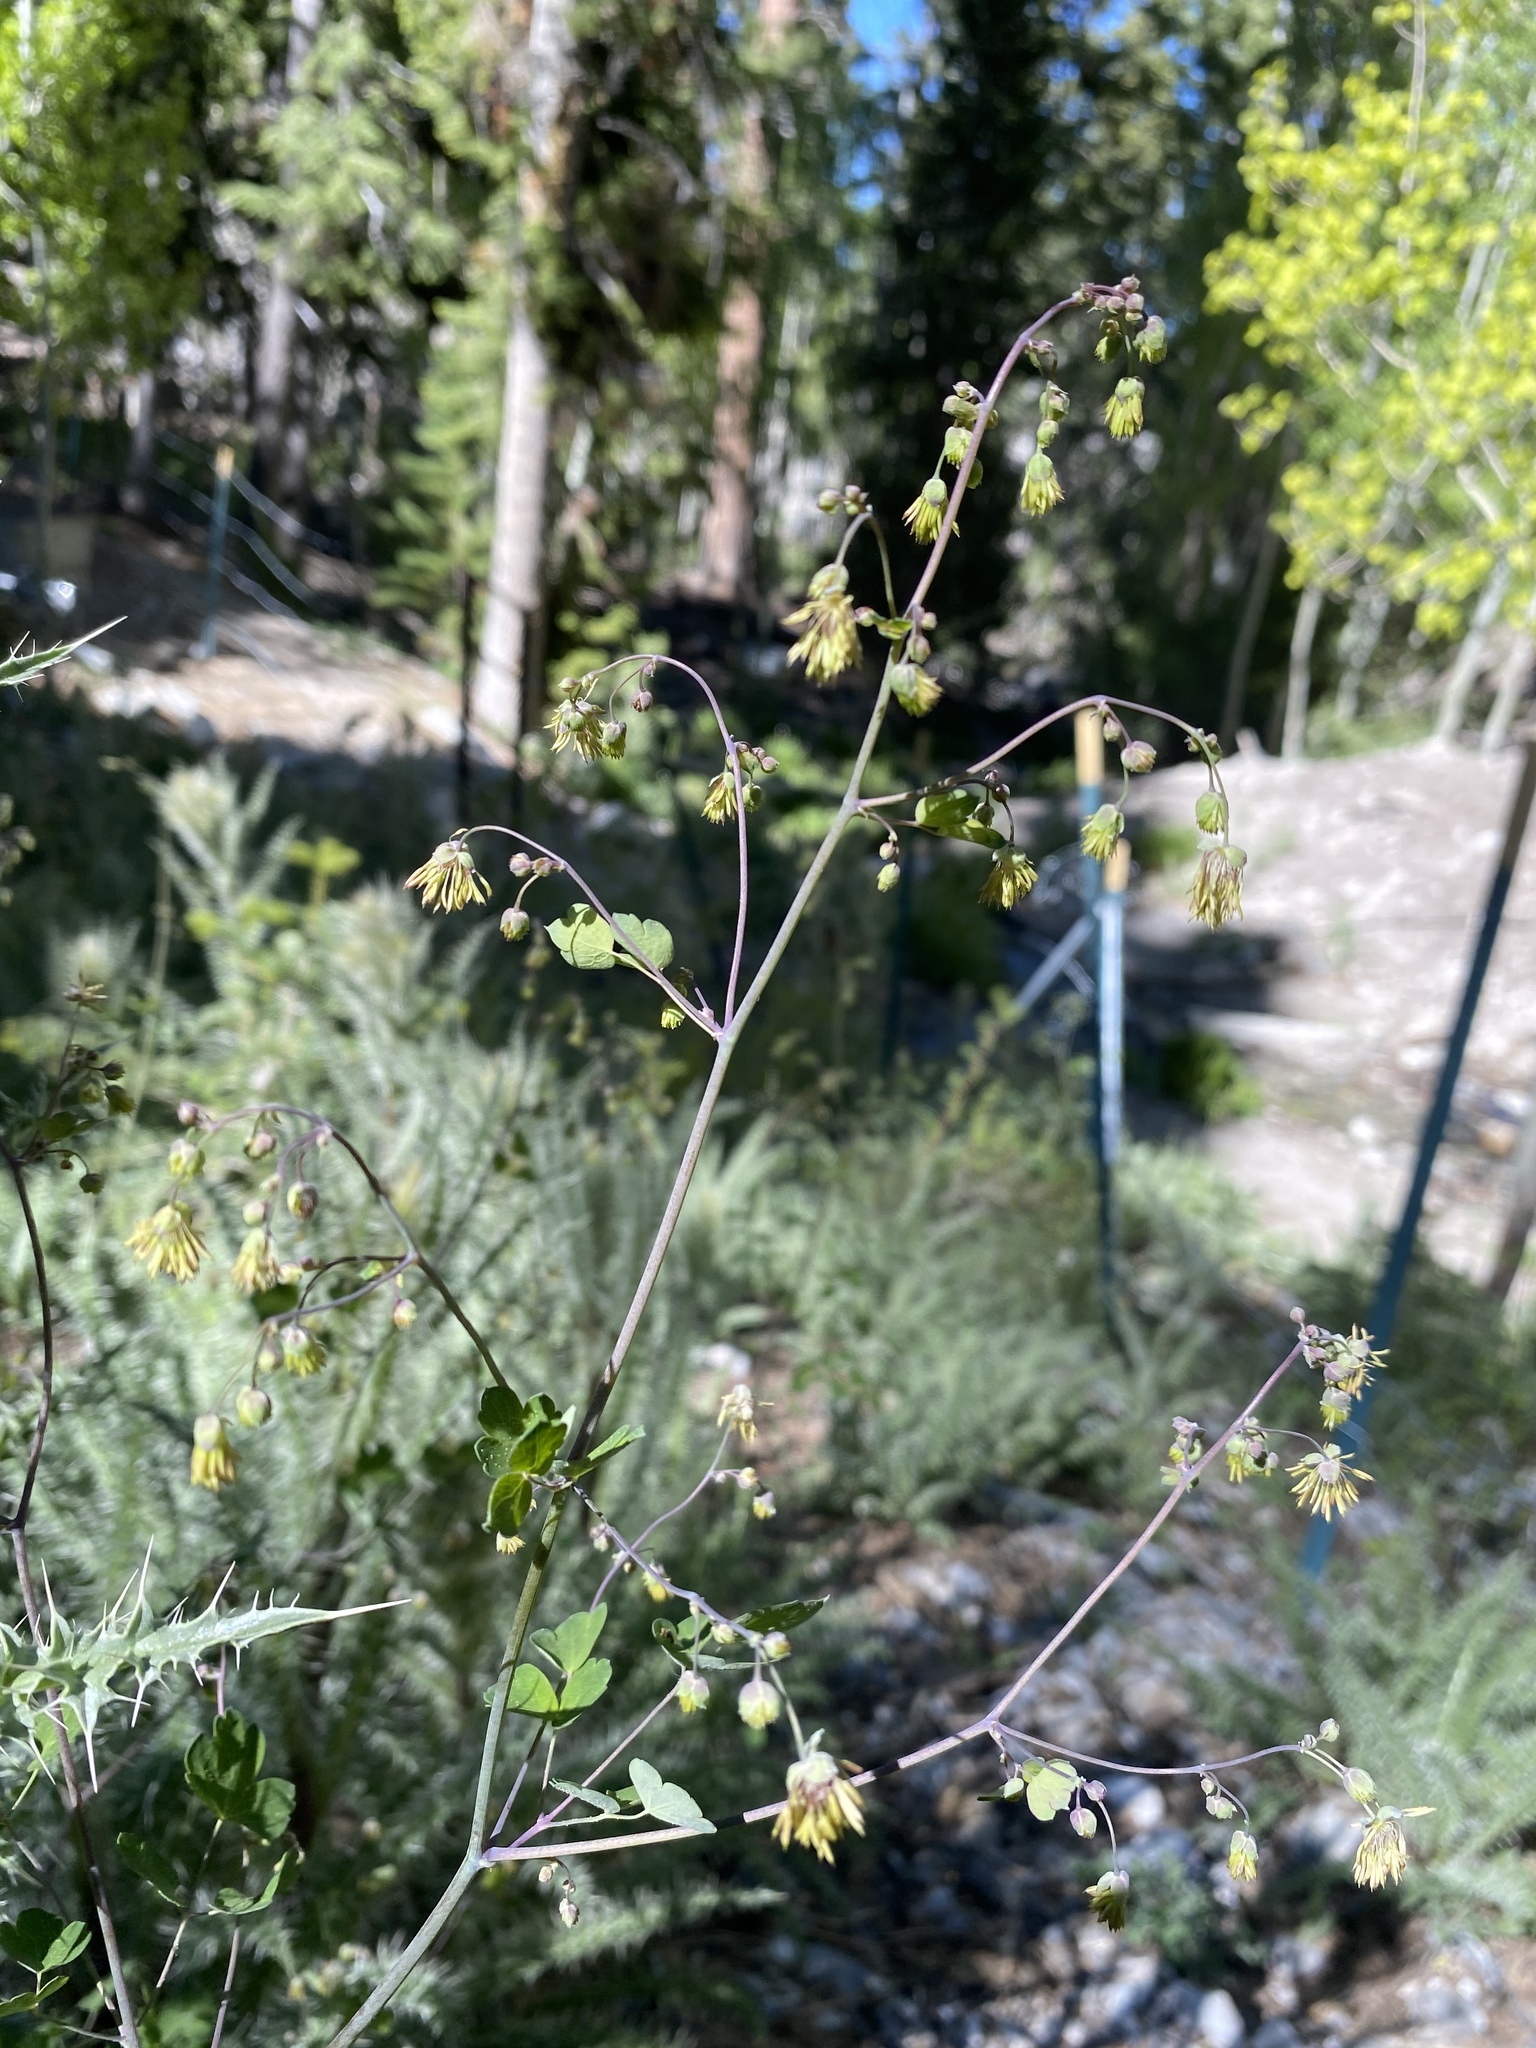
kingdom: Plantae
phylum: Tracheophyta
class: Magnoliopsida
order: Ranunculales
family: Ranunculaceae
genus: Thalictrum
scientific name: Thalictrum fendleri
